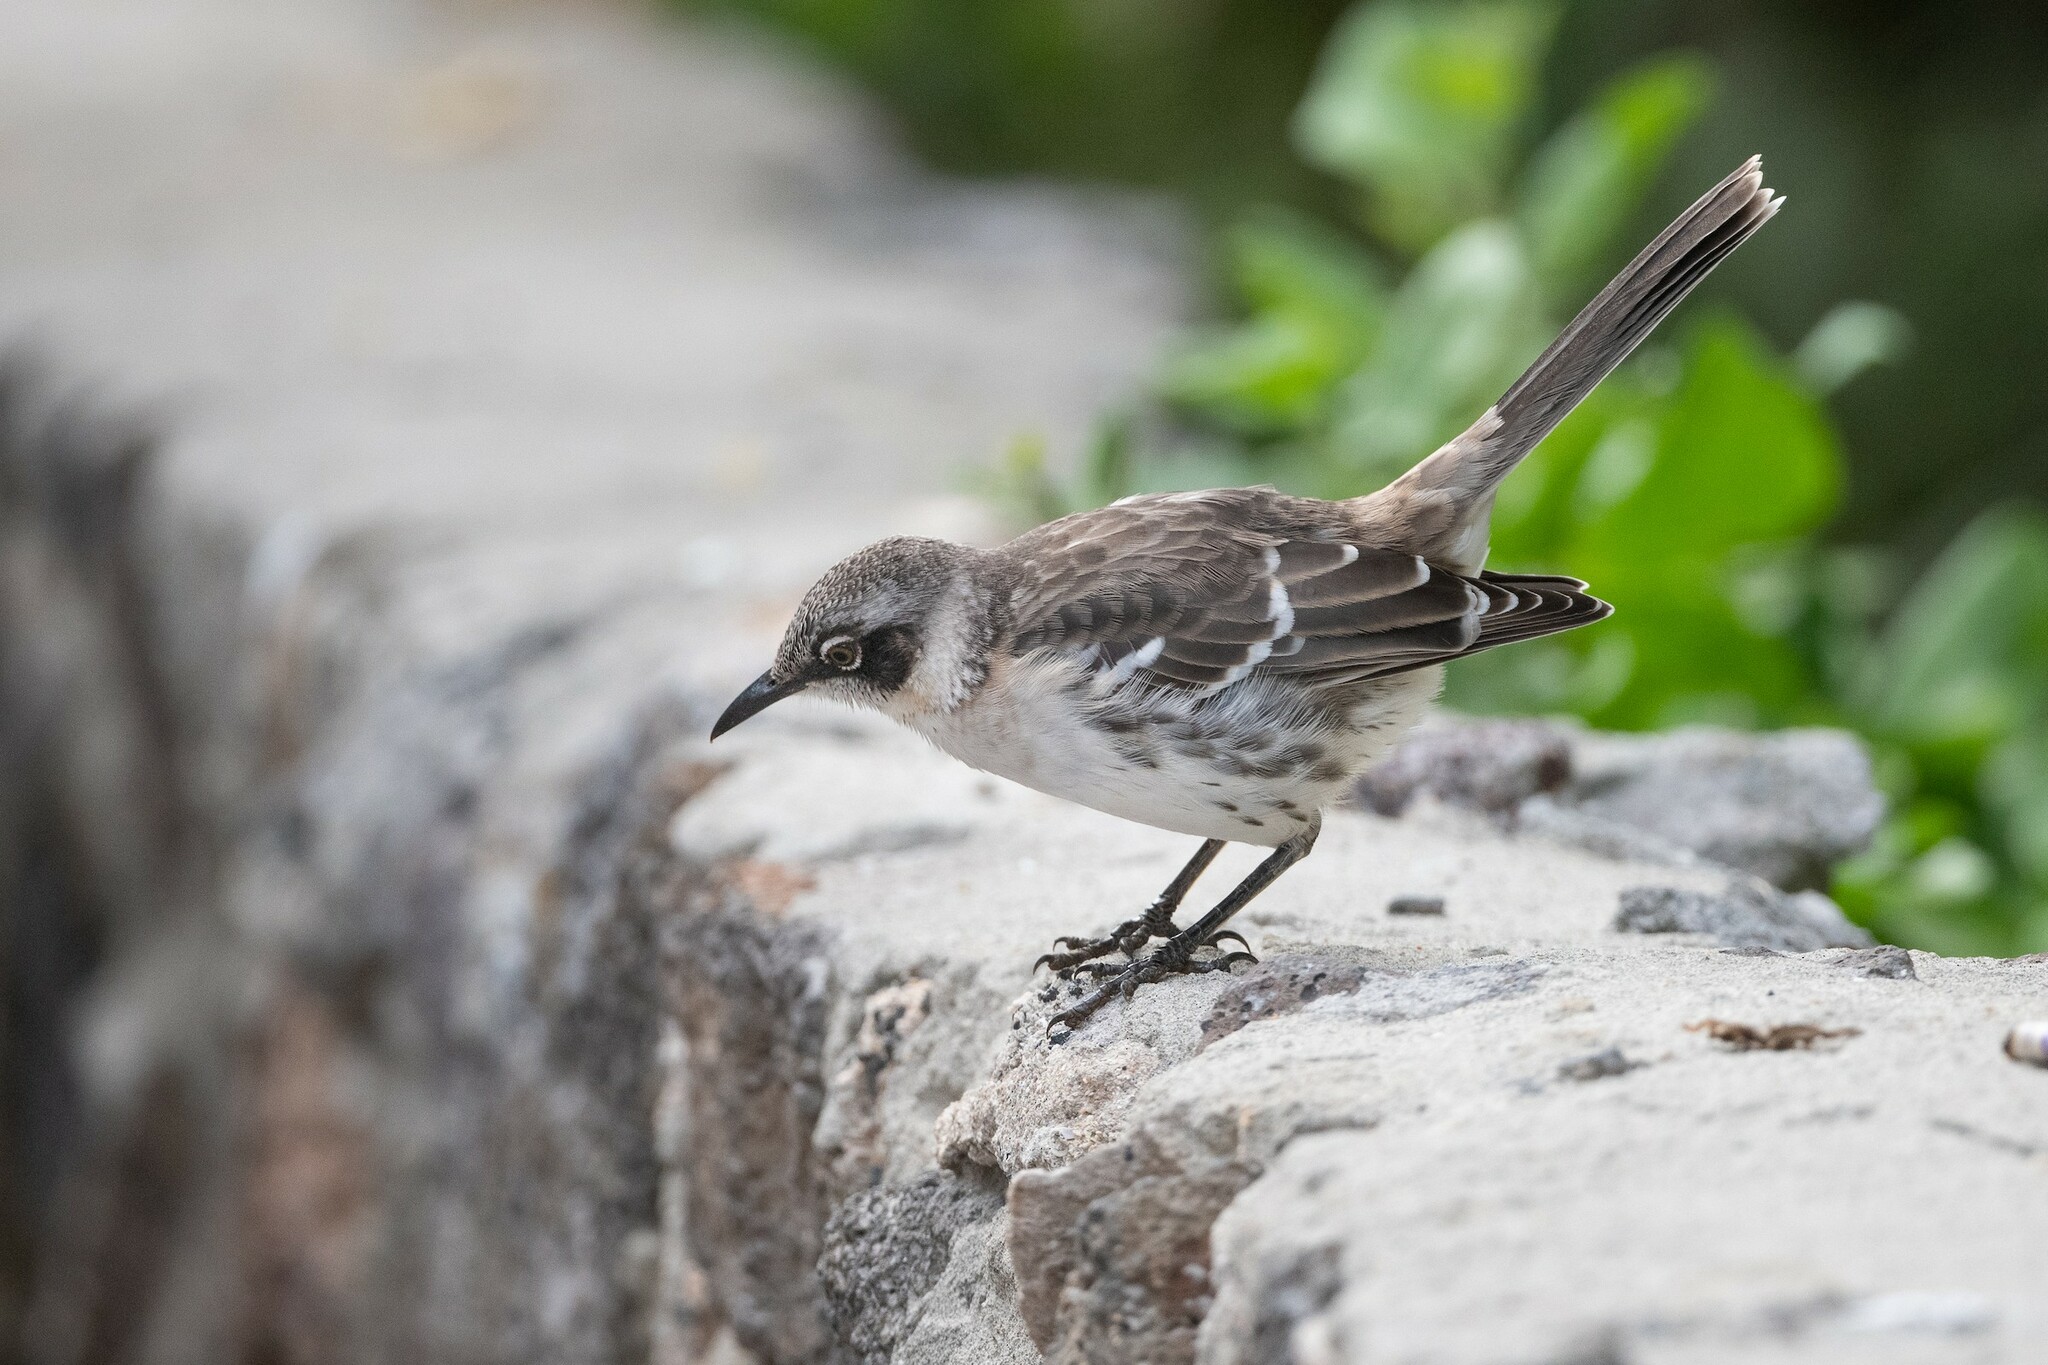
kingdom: Animalia
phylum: Chordata
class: Aves
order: Passeriformes
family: Mimidae
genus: Mimus
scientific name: Mimus parvulus
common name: Galapagos mockingbird
